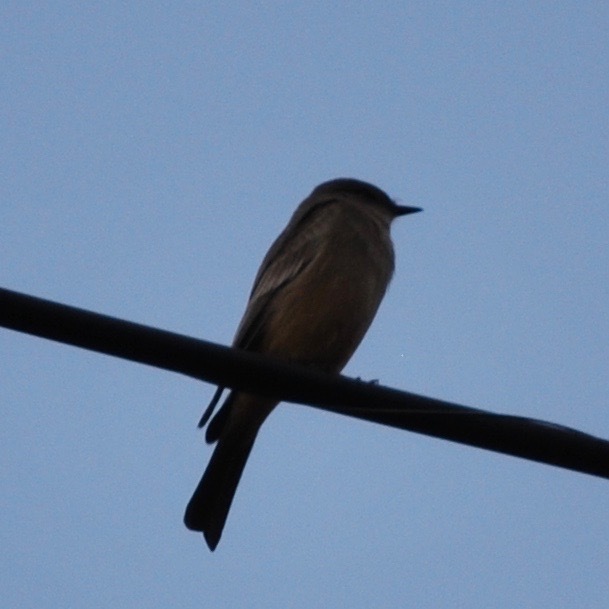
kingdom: Animalia
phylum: Chordata
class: Aves
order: Passeriformes
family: Tyrannidae
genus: Sayornis
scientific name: Sayornis saya
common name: Say's phoebe
